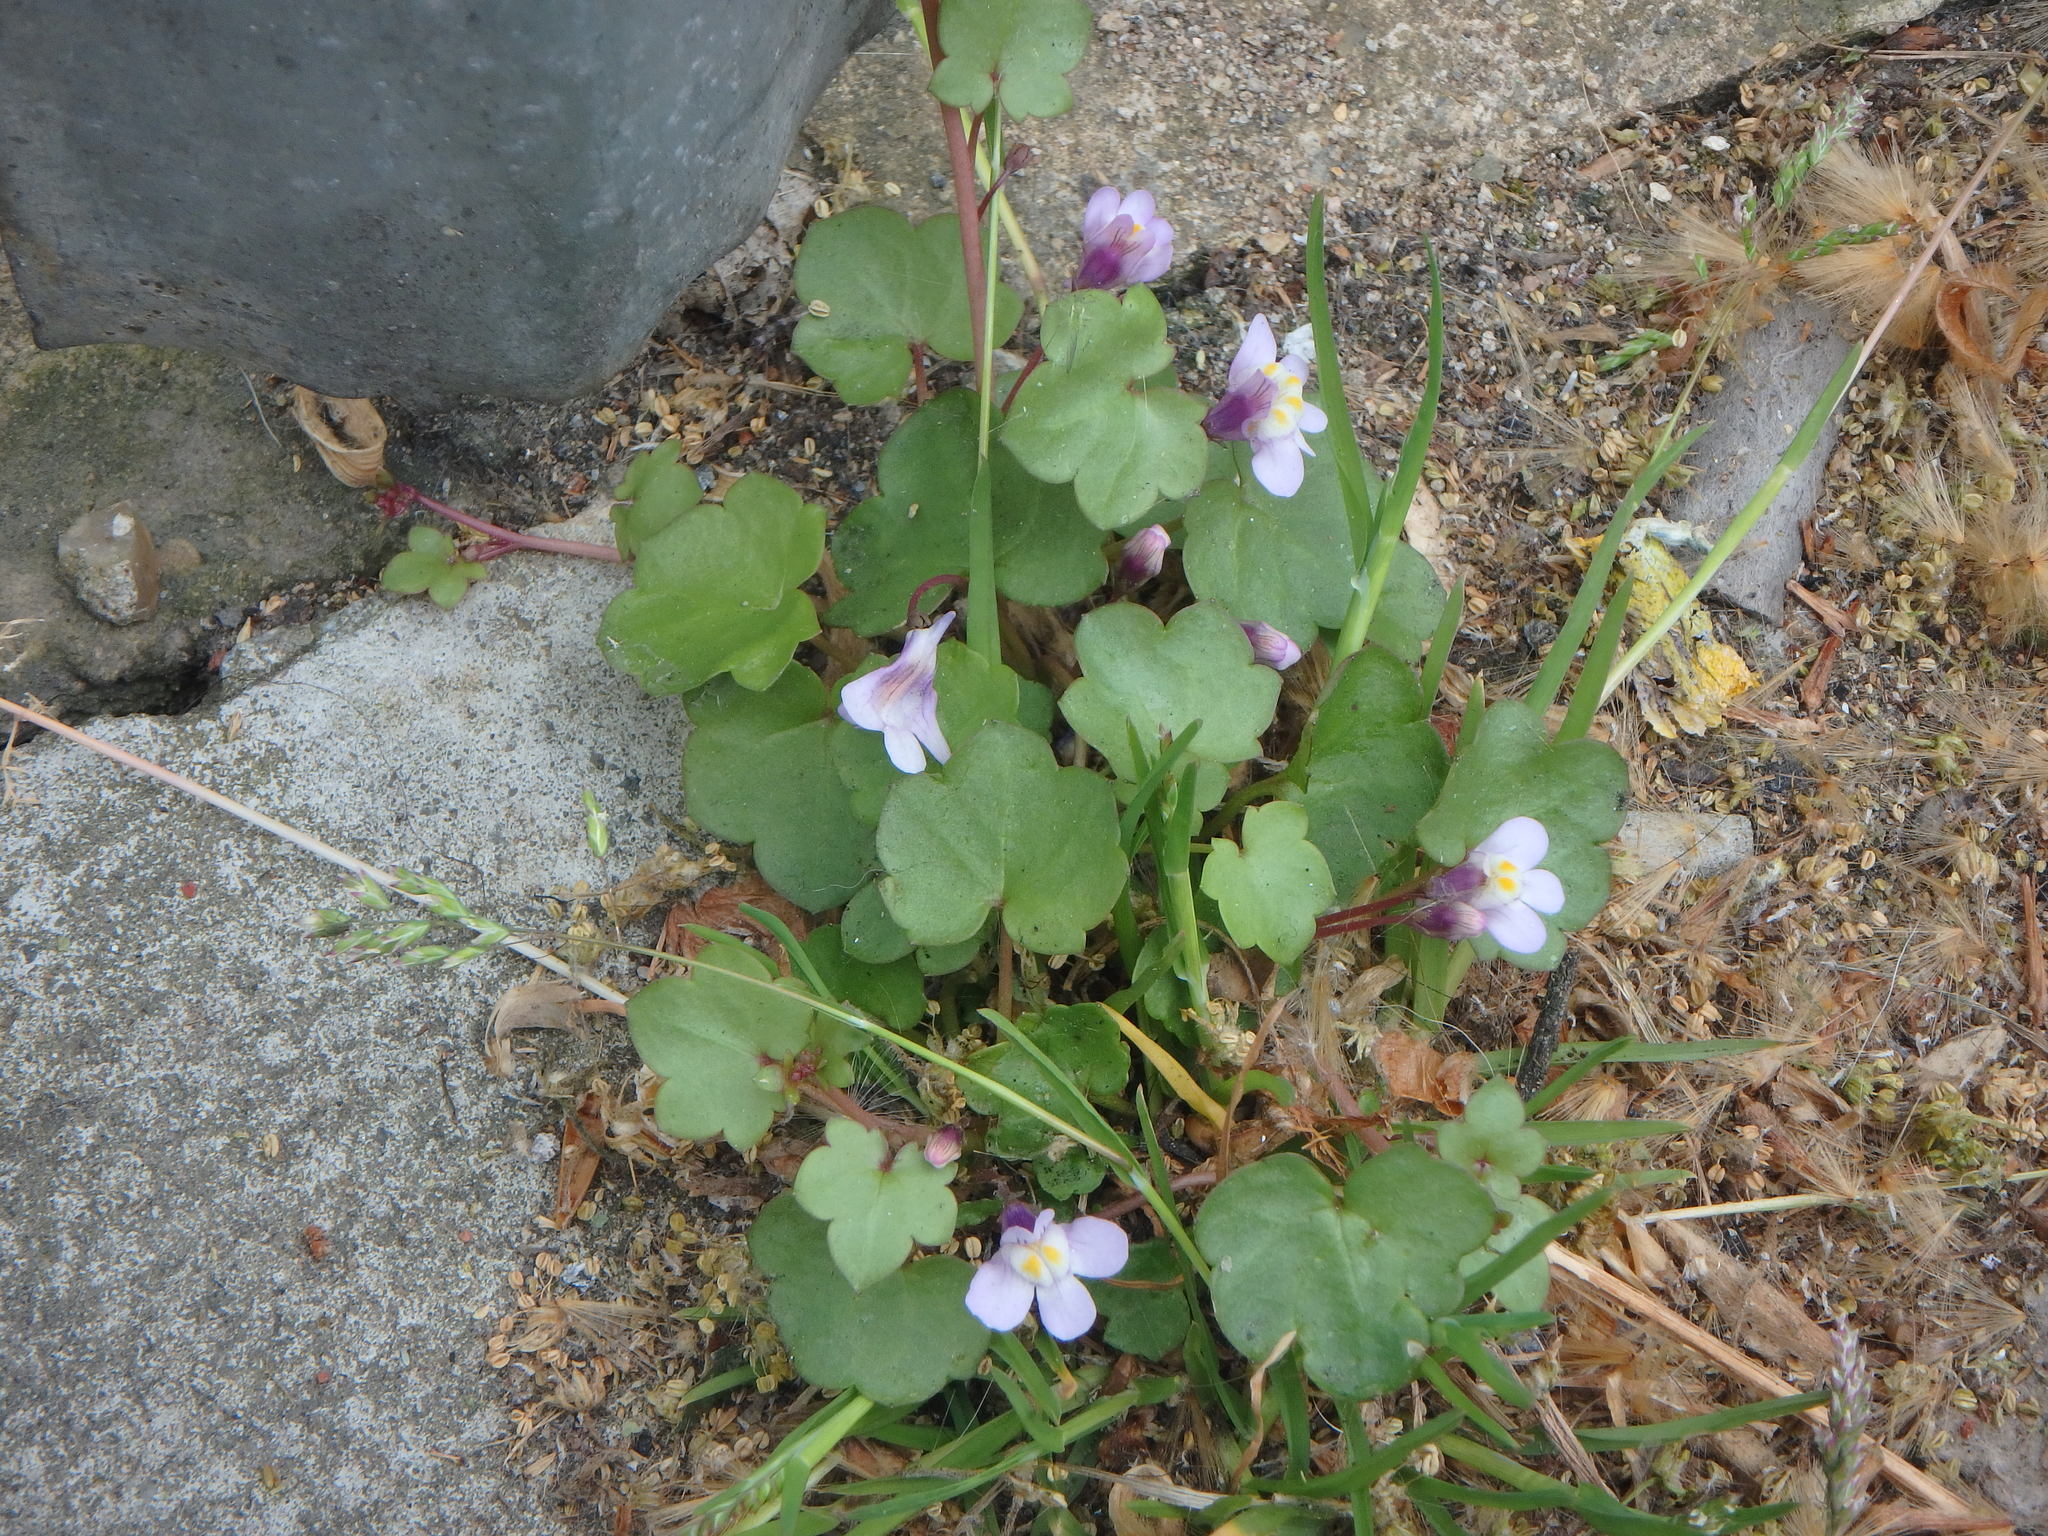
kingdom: Plantae
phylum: Tracheophyta
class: Magnoliopsida
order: Lamiales
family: Plantaginaceae
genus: Cymbalaria
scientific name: Cymbalaria muralis
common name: Ivy-leaved toadflax
